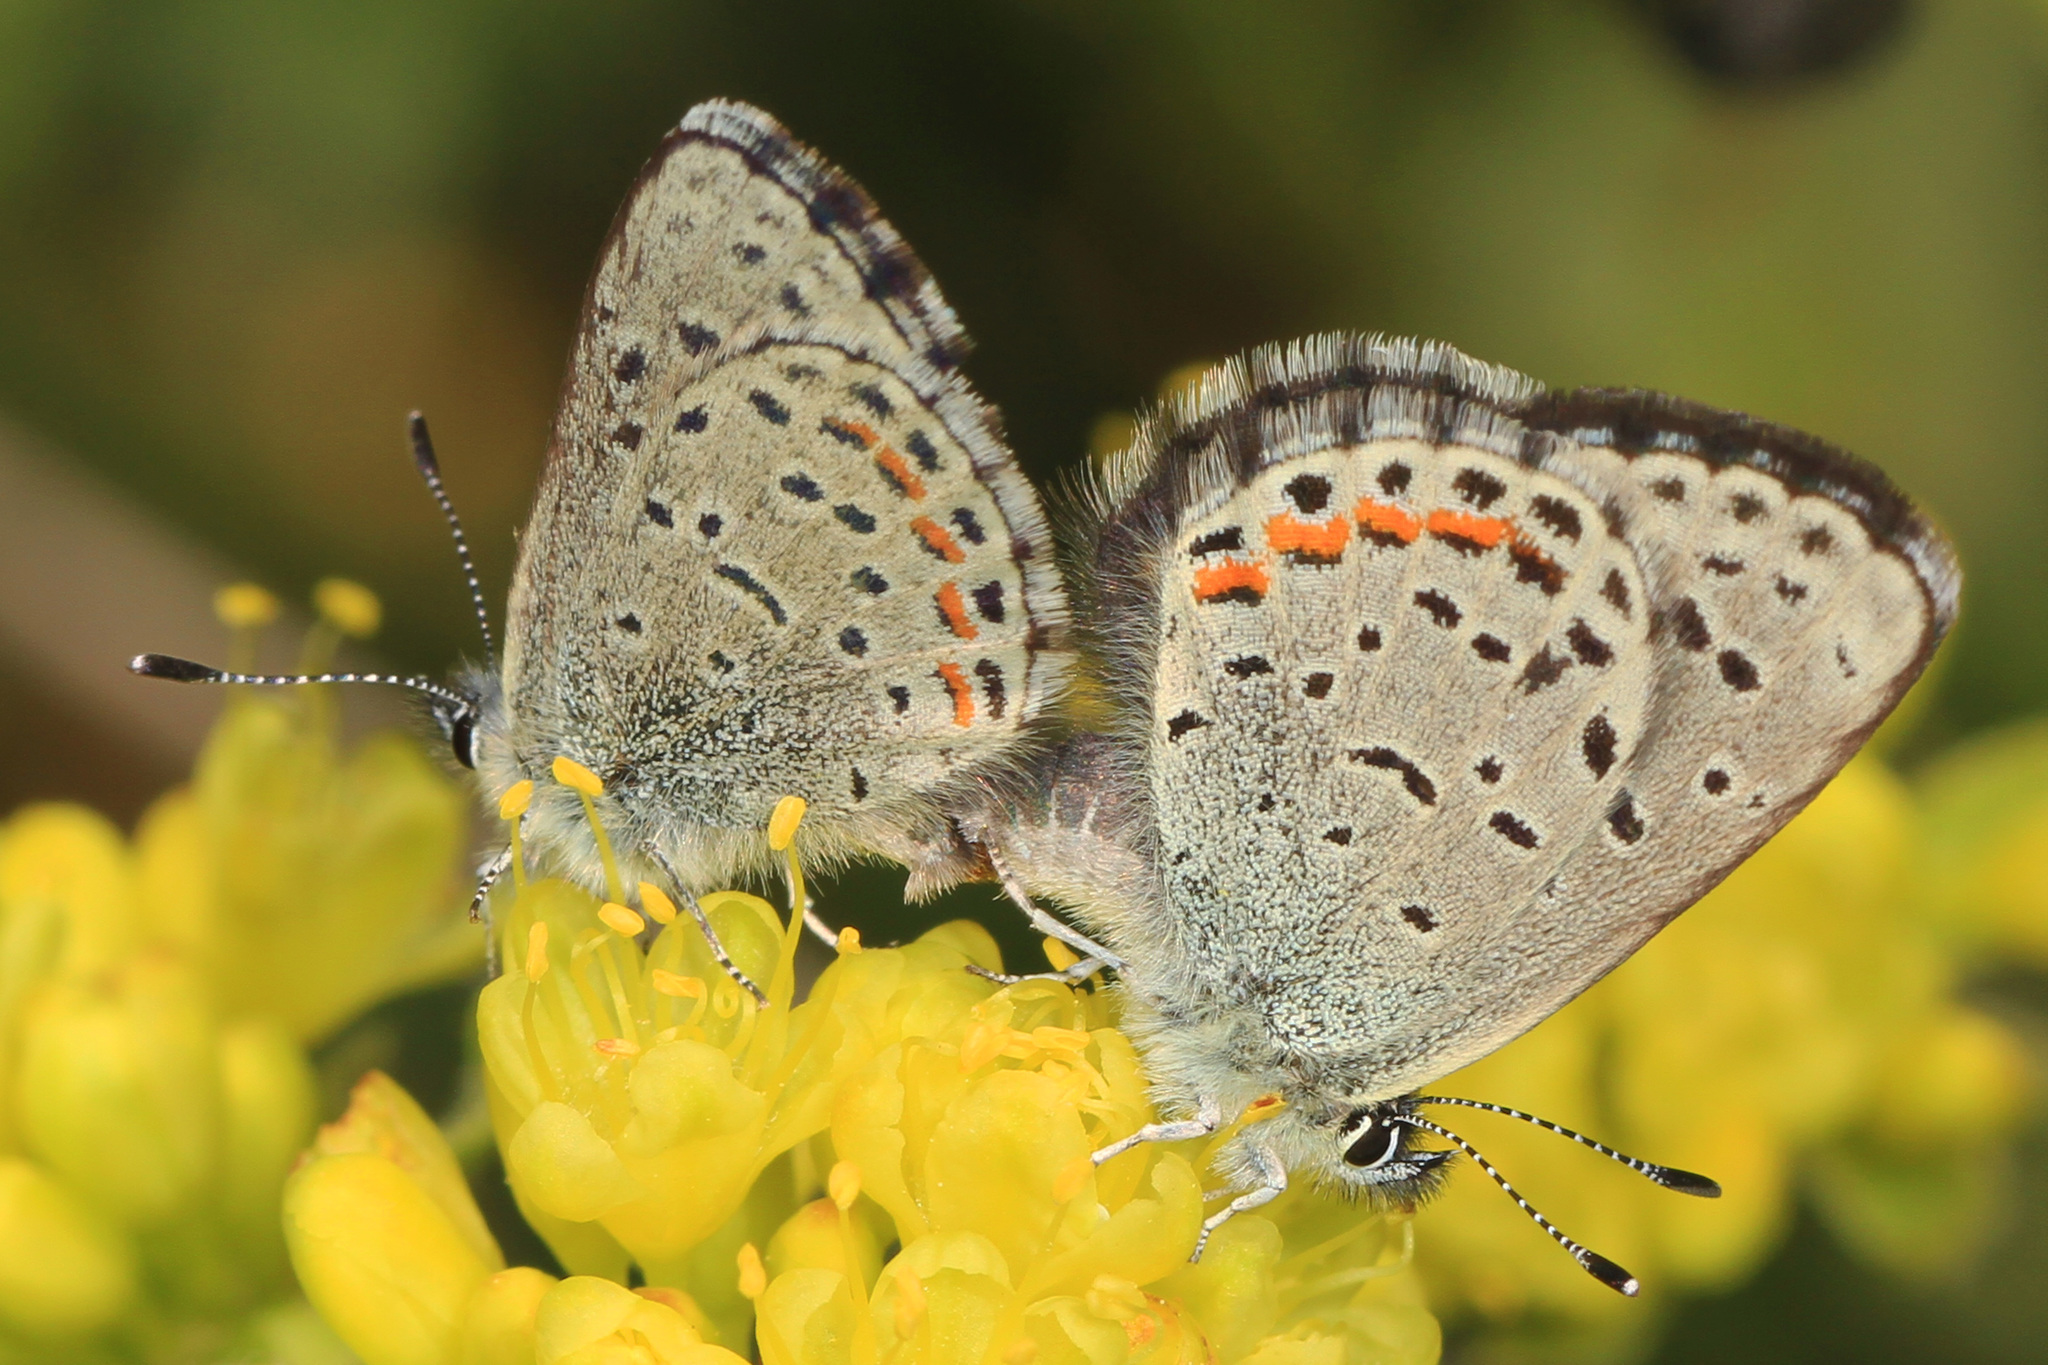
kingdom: Animalia
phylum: Arthropoda
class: Insecta
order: Lepidoptera
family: Lycaenidae
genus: Euphilotes
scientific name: Euphilotes enoptes
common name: Dotted blue
